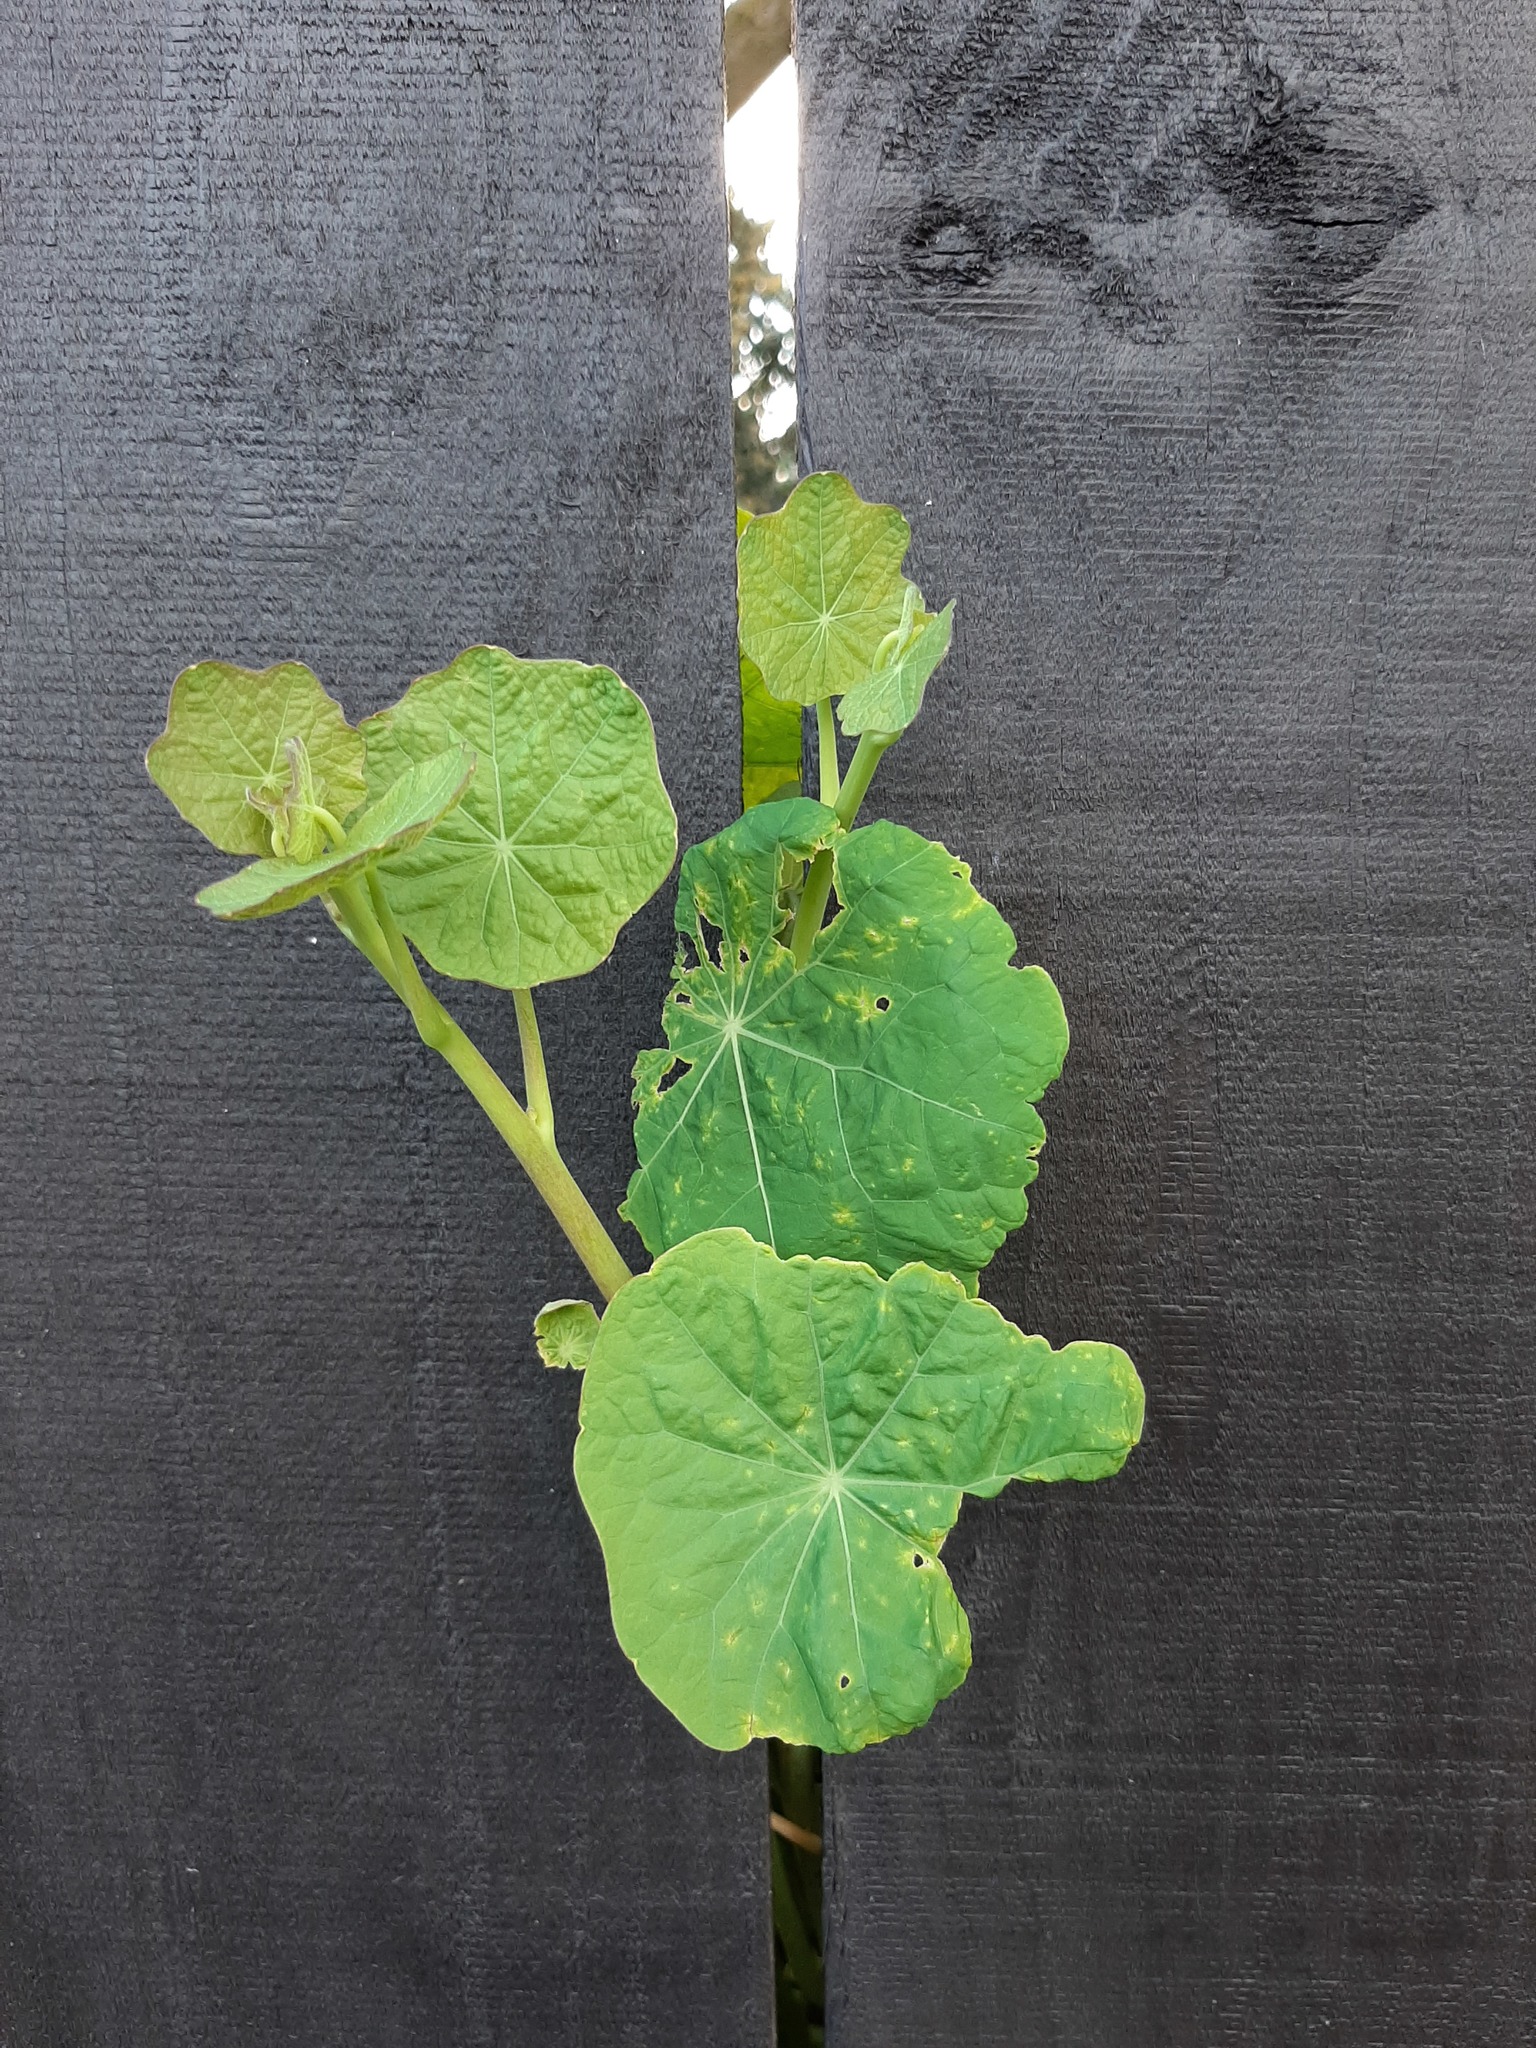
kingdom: Plantae
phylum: Tracheophyta
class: Magnoliopsida
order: Brassicales
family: Tropaeolaceae
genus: Tropaeolum
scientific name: Tropaeolum majus
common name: Nasturtium
